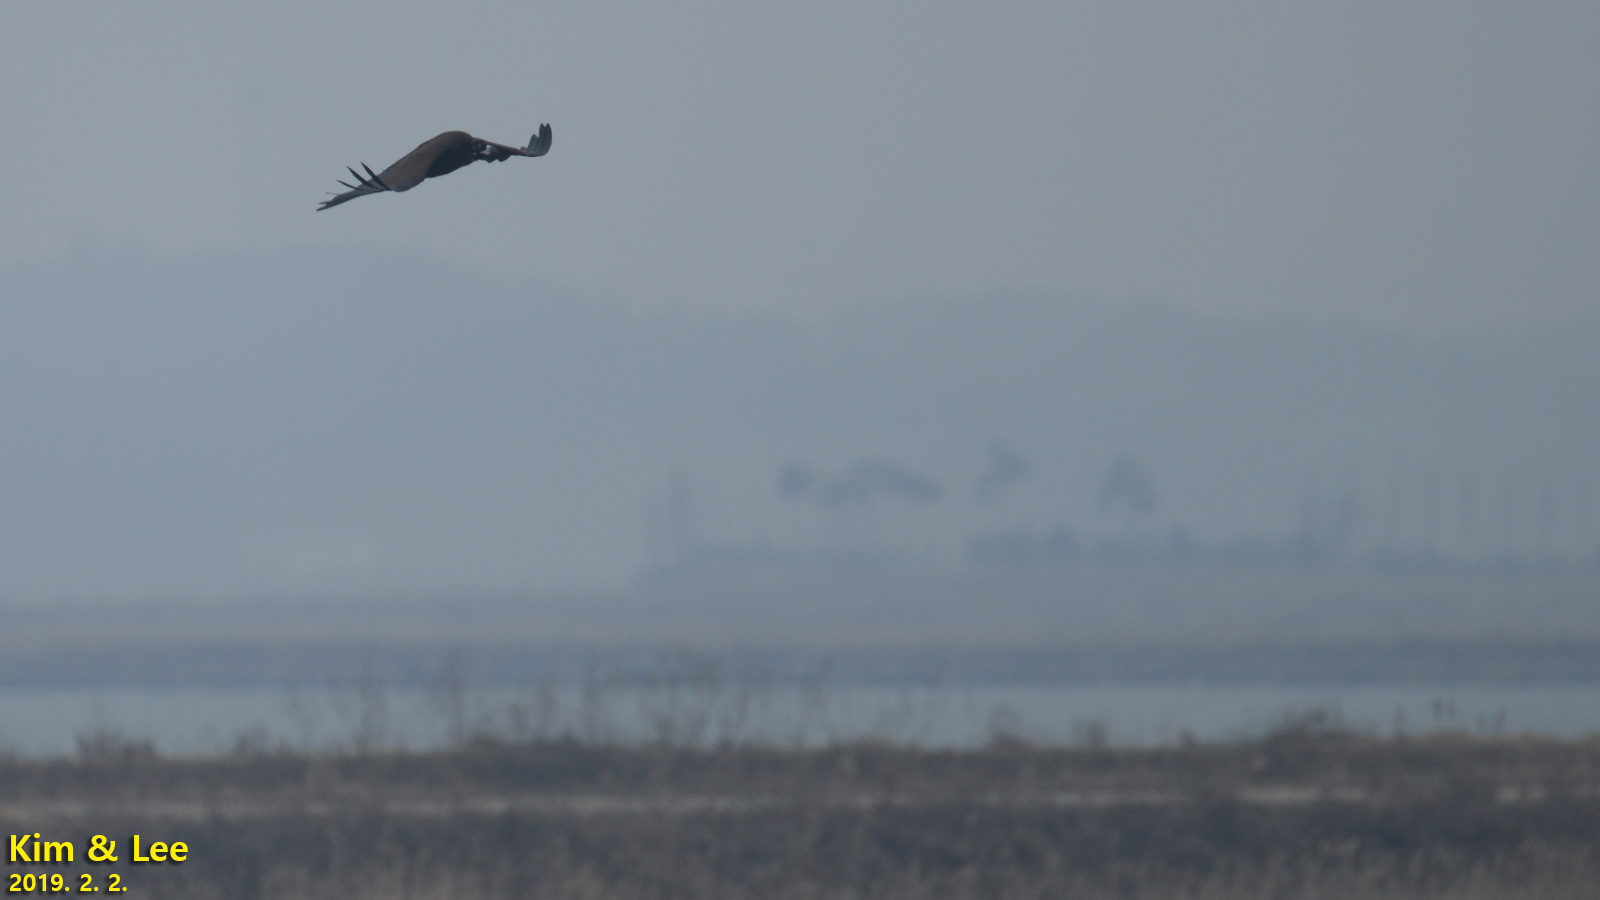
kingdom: Animalia
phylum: Chordata
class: Aves
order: Accipitriformes
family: Accipitridae
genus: Aegypius
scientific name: Aegypius monachus
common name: Cinereous vulture
